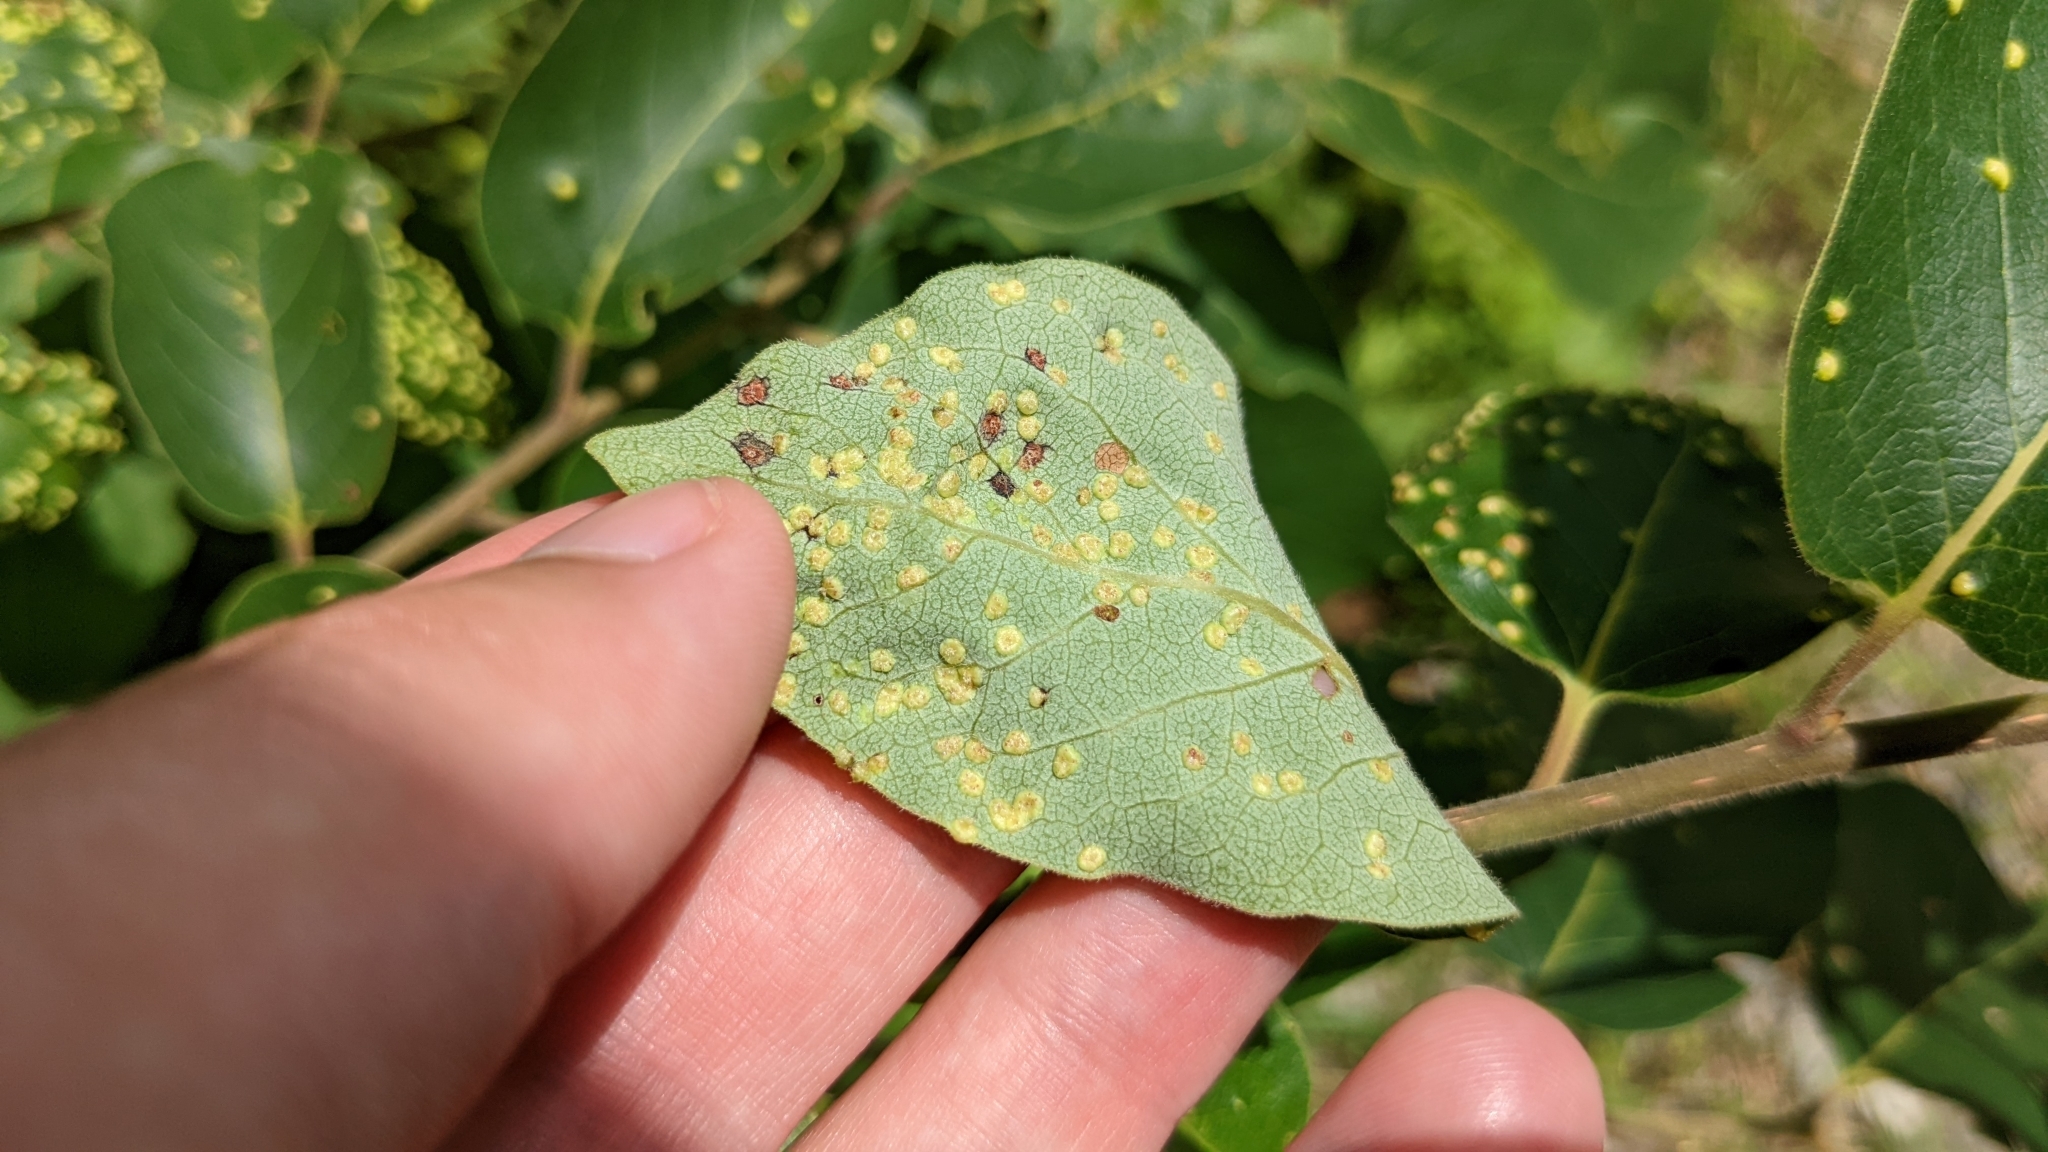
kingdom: Animalia
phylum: Arthropoda
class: Arachnida
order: Trombidiformes
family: Eriophyidae
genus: Aceria
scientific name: Aceria
